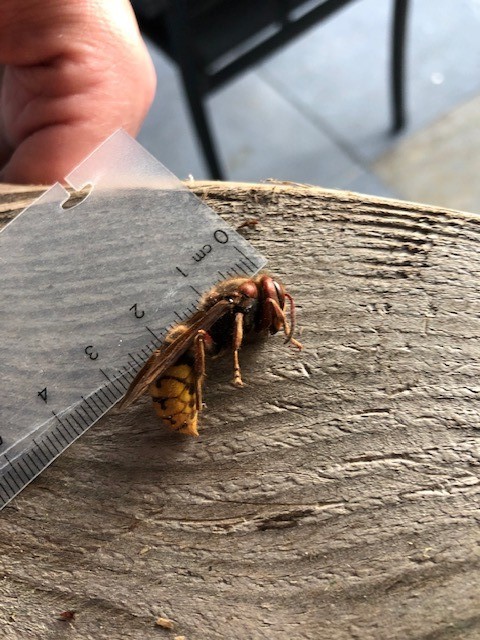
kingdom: Animalia
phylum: Arthropoda
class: Insecta
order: Hymenoptera
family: Vespidae
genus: Vespa
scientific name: Vespa crabro
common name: Hornet
